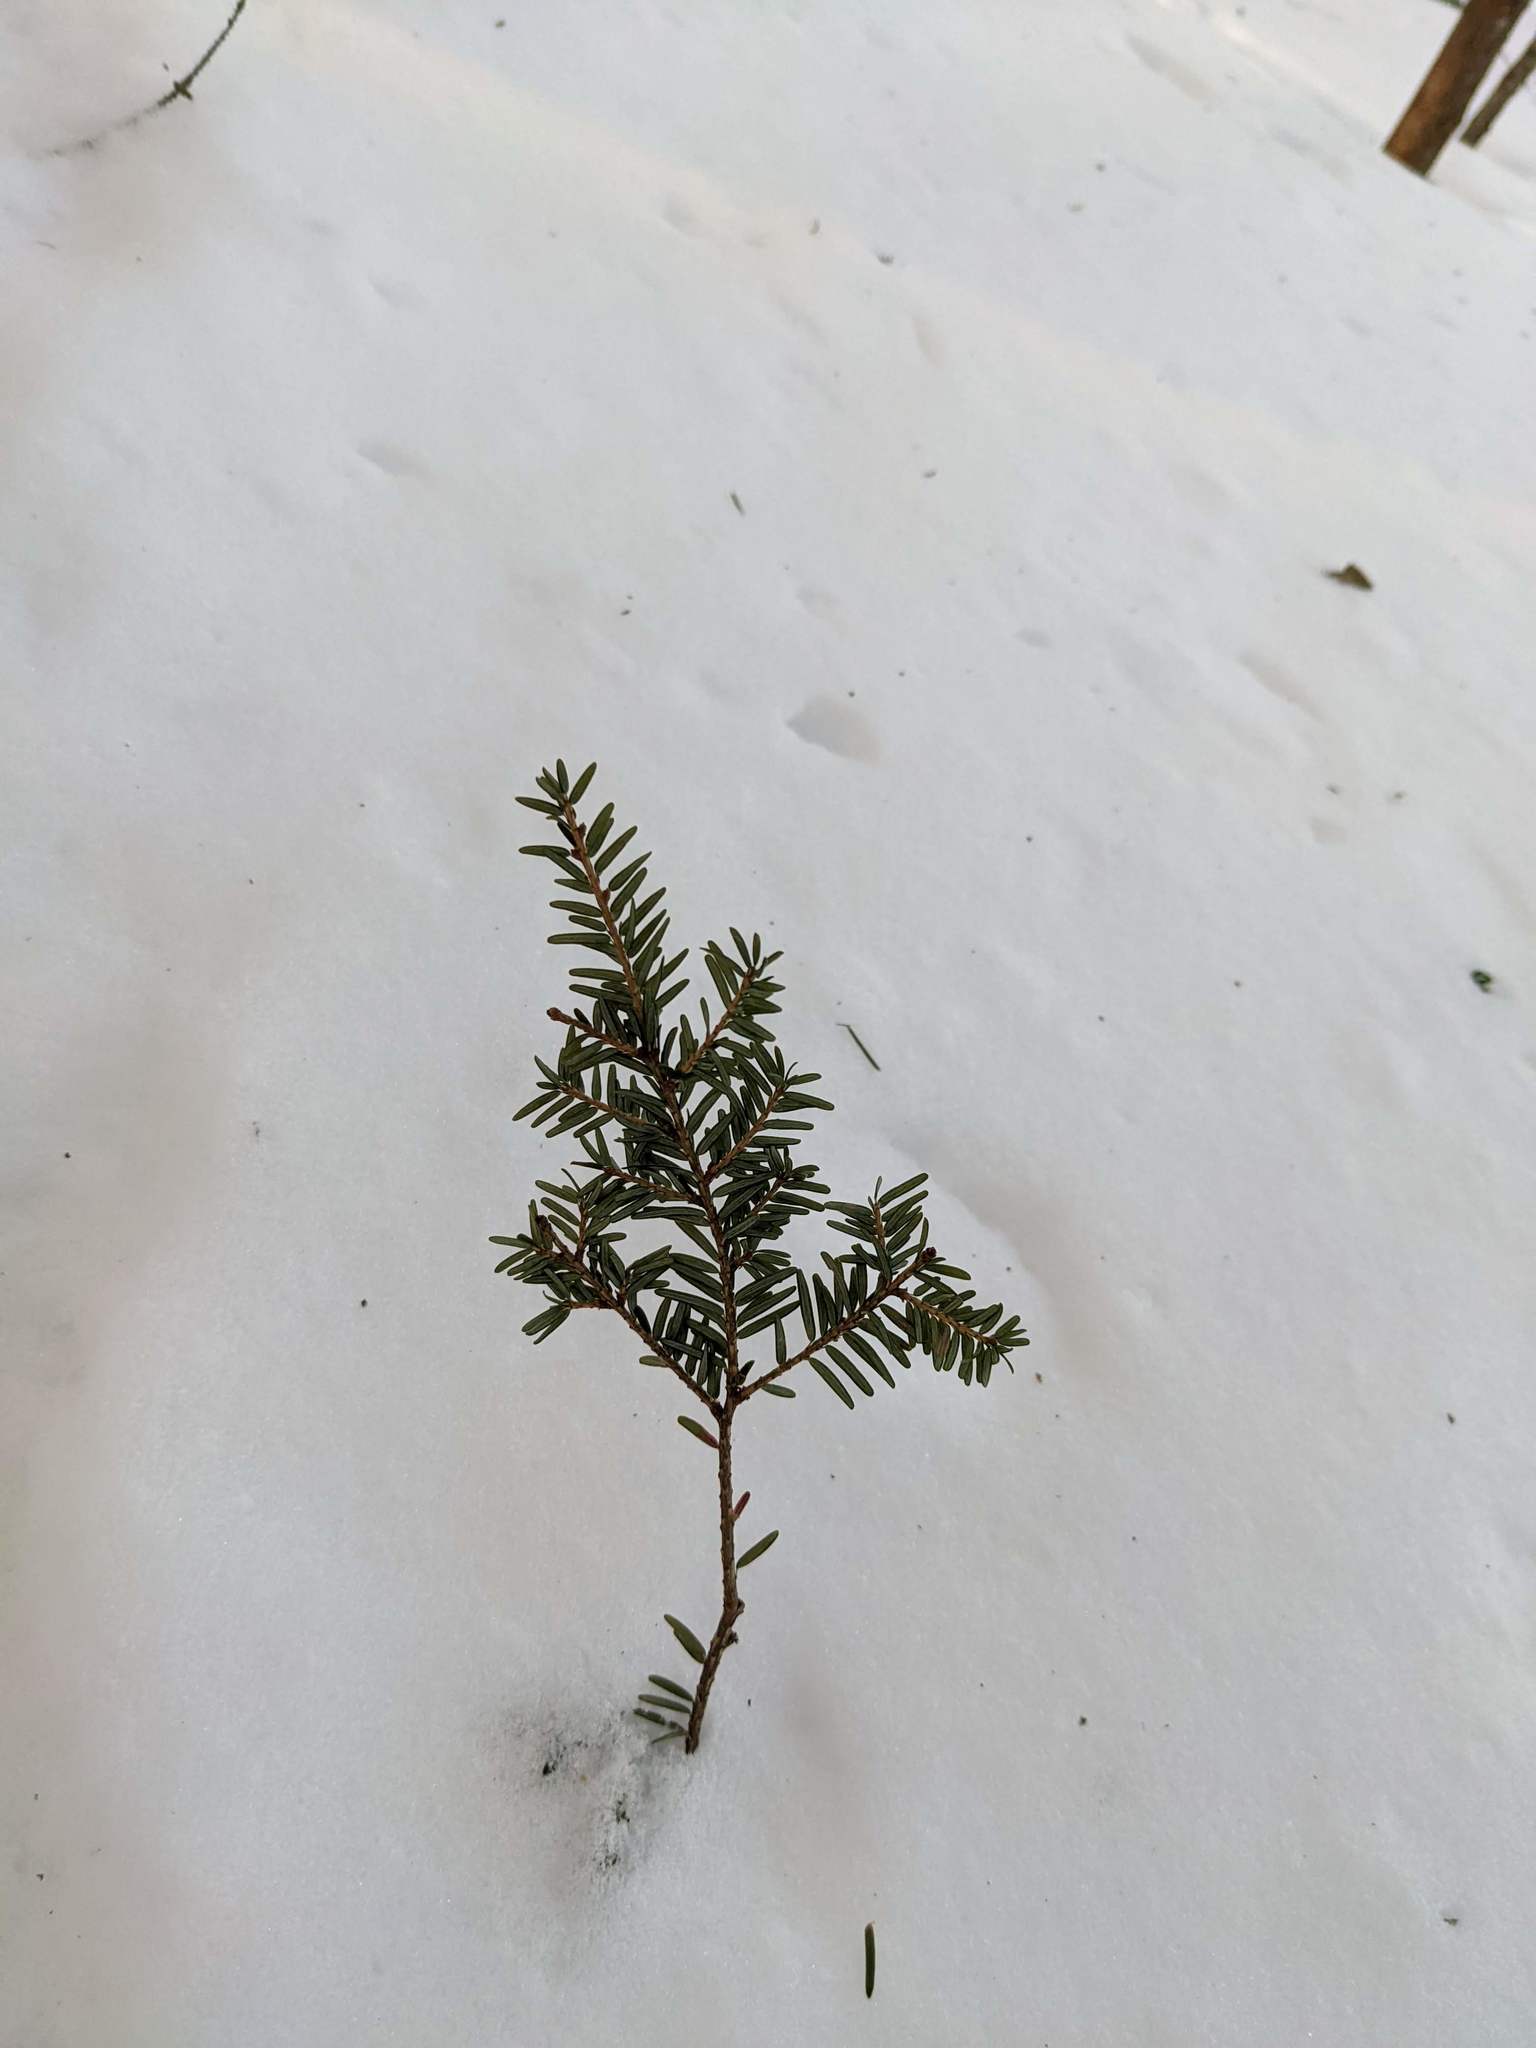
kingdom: Plantae
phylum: Tracheophyta
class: Pinopsida
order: Pinales
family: Pinaceae
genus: Tsuga
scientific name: Tsuga canadensis
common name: Eastern hemlock
